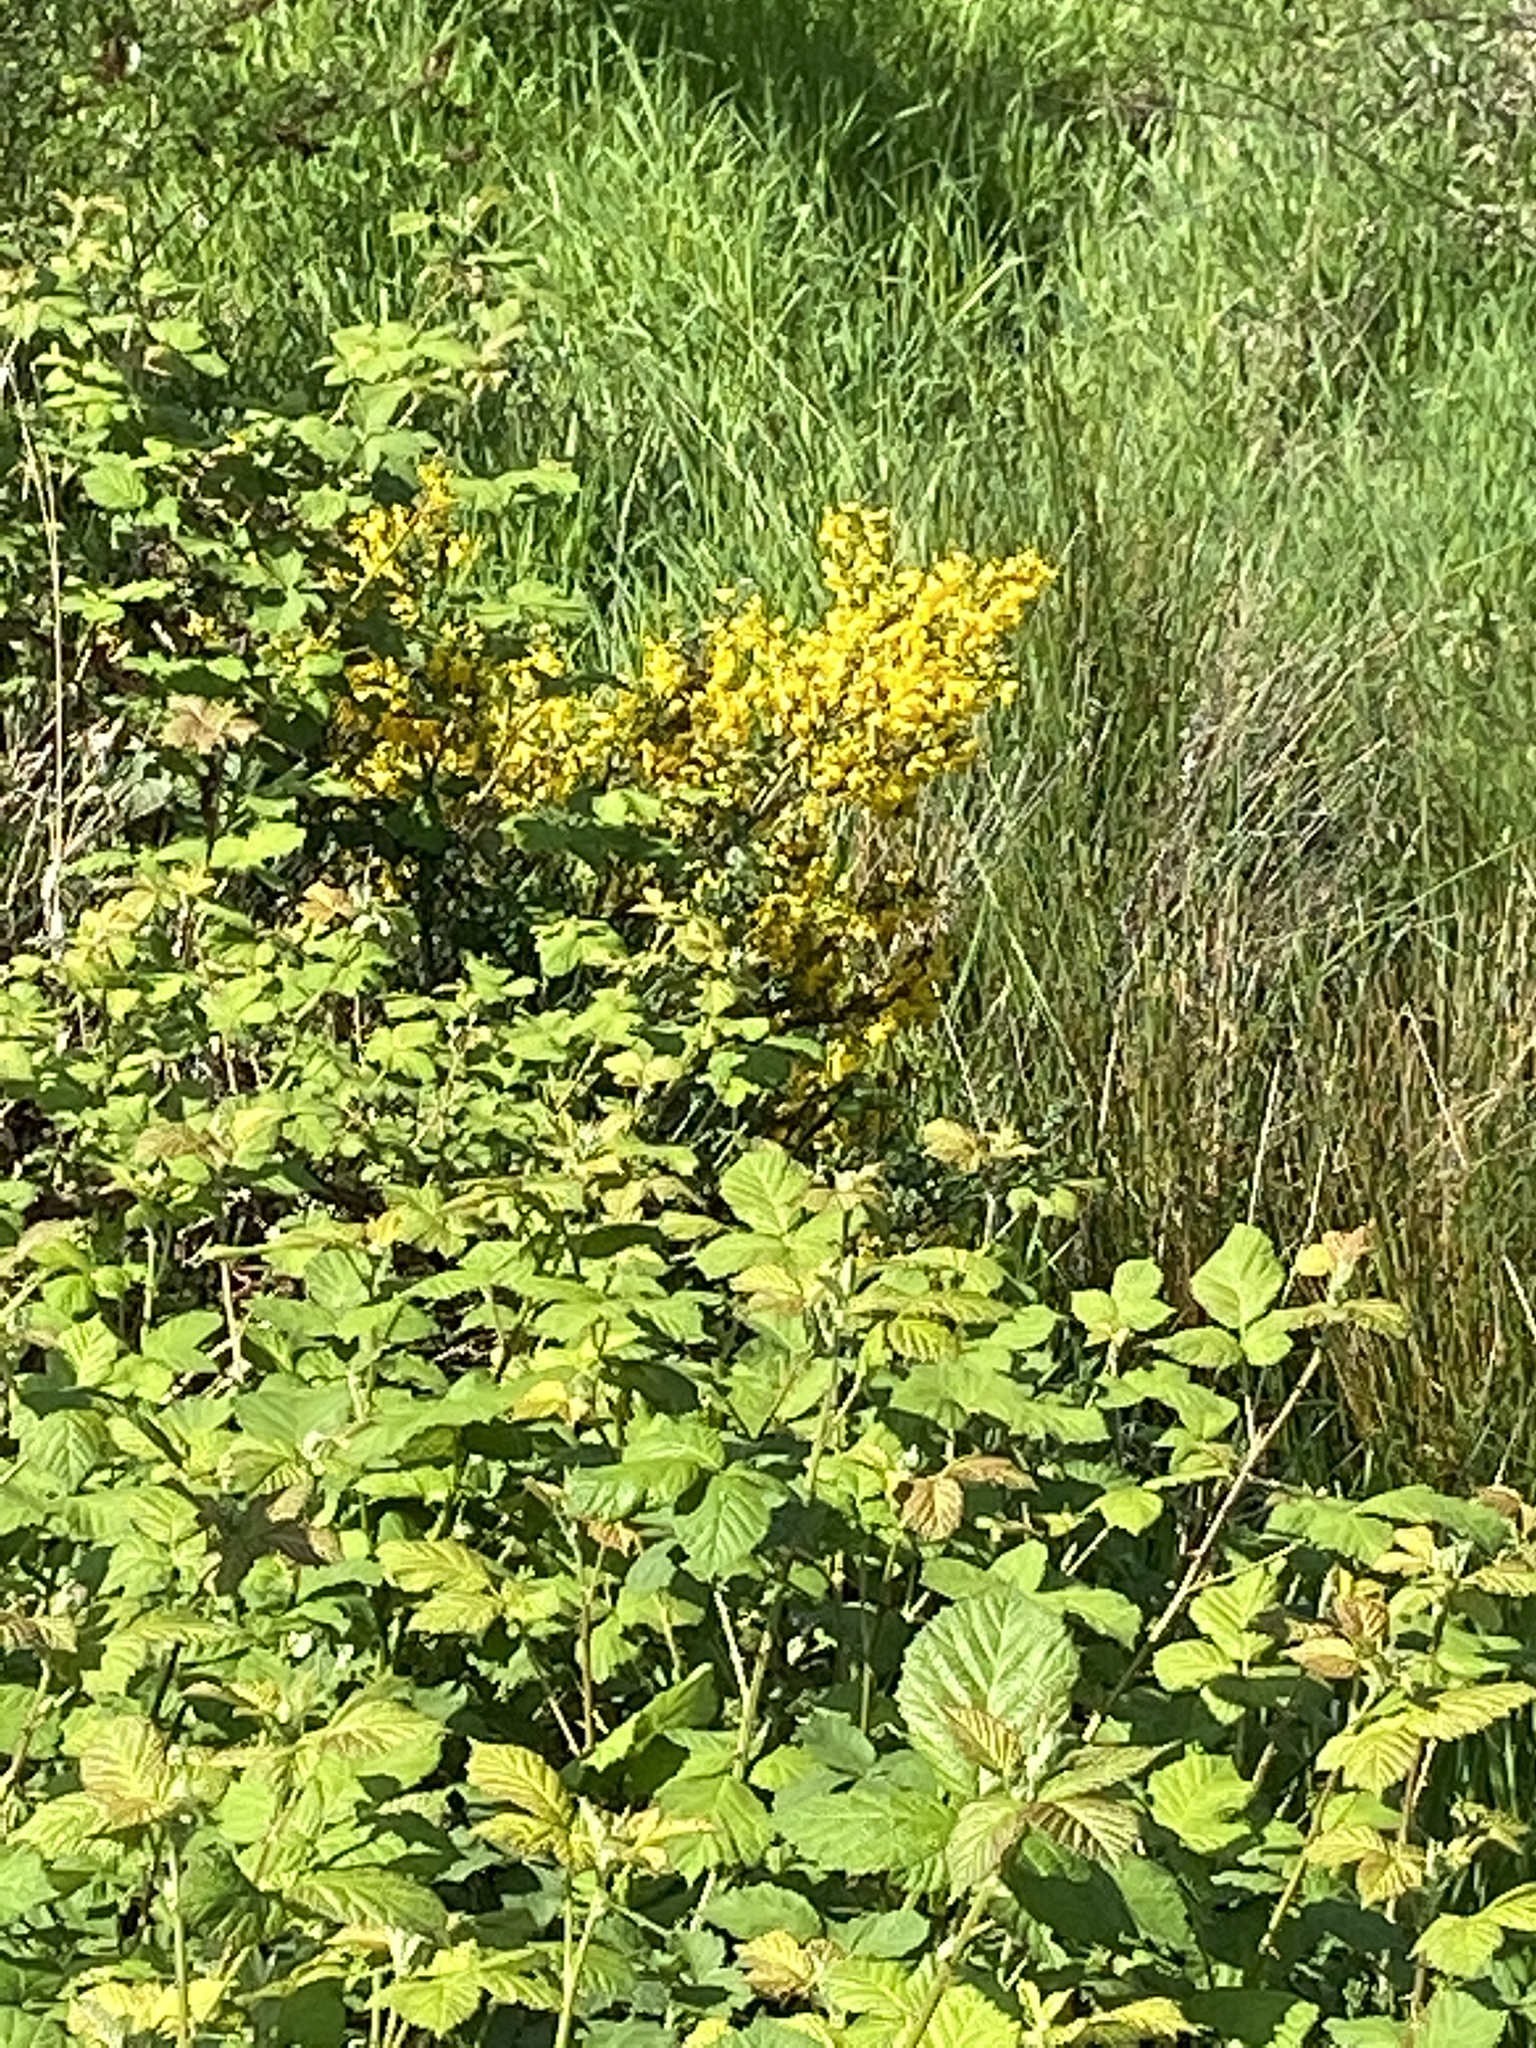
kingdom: Plantae
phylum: Tracheophyta
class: Magnoliopsida
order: Fabales
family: Fabaceae
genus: Cytisus
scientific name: Cytisus scoparius
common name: Scotch broom
